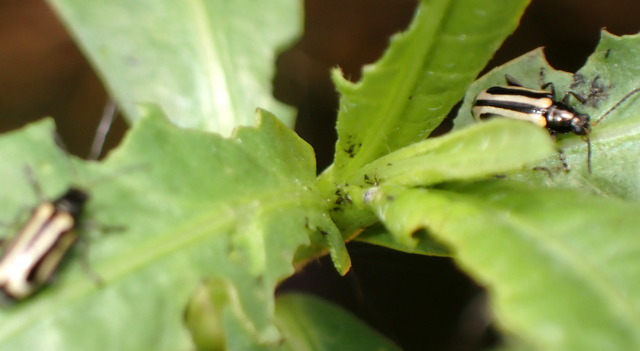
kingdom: Animalia
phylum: Arthropoda
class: Insecta
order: Coleoptera
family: Chrysomelidae
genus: Agasicles
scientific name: Agasicles hygrophila
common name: Alligatorweed flea beetle
